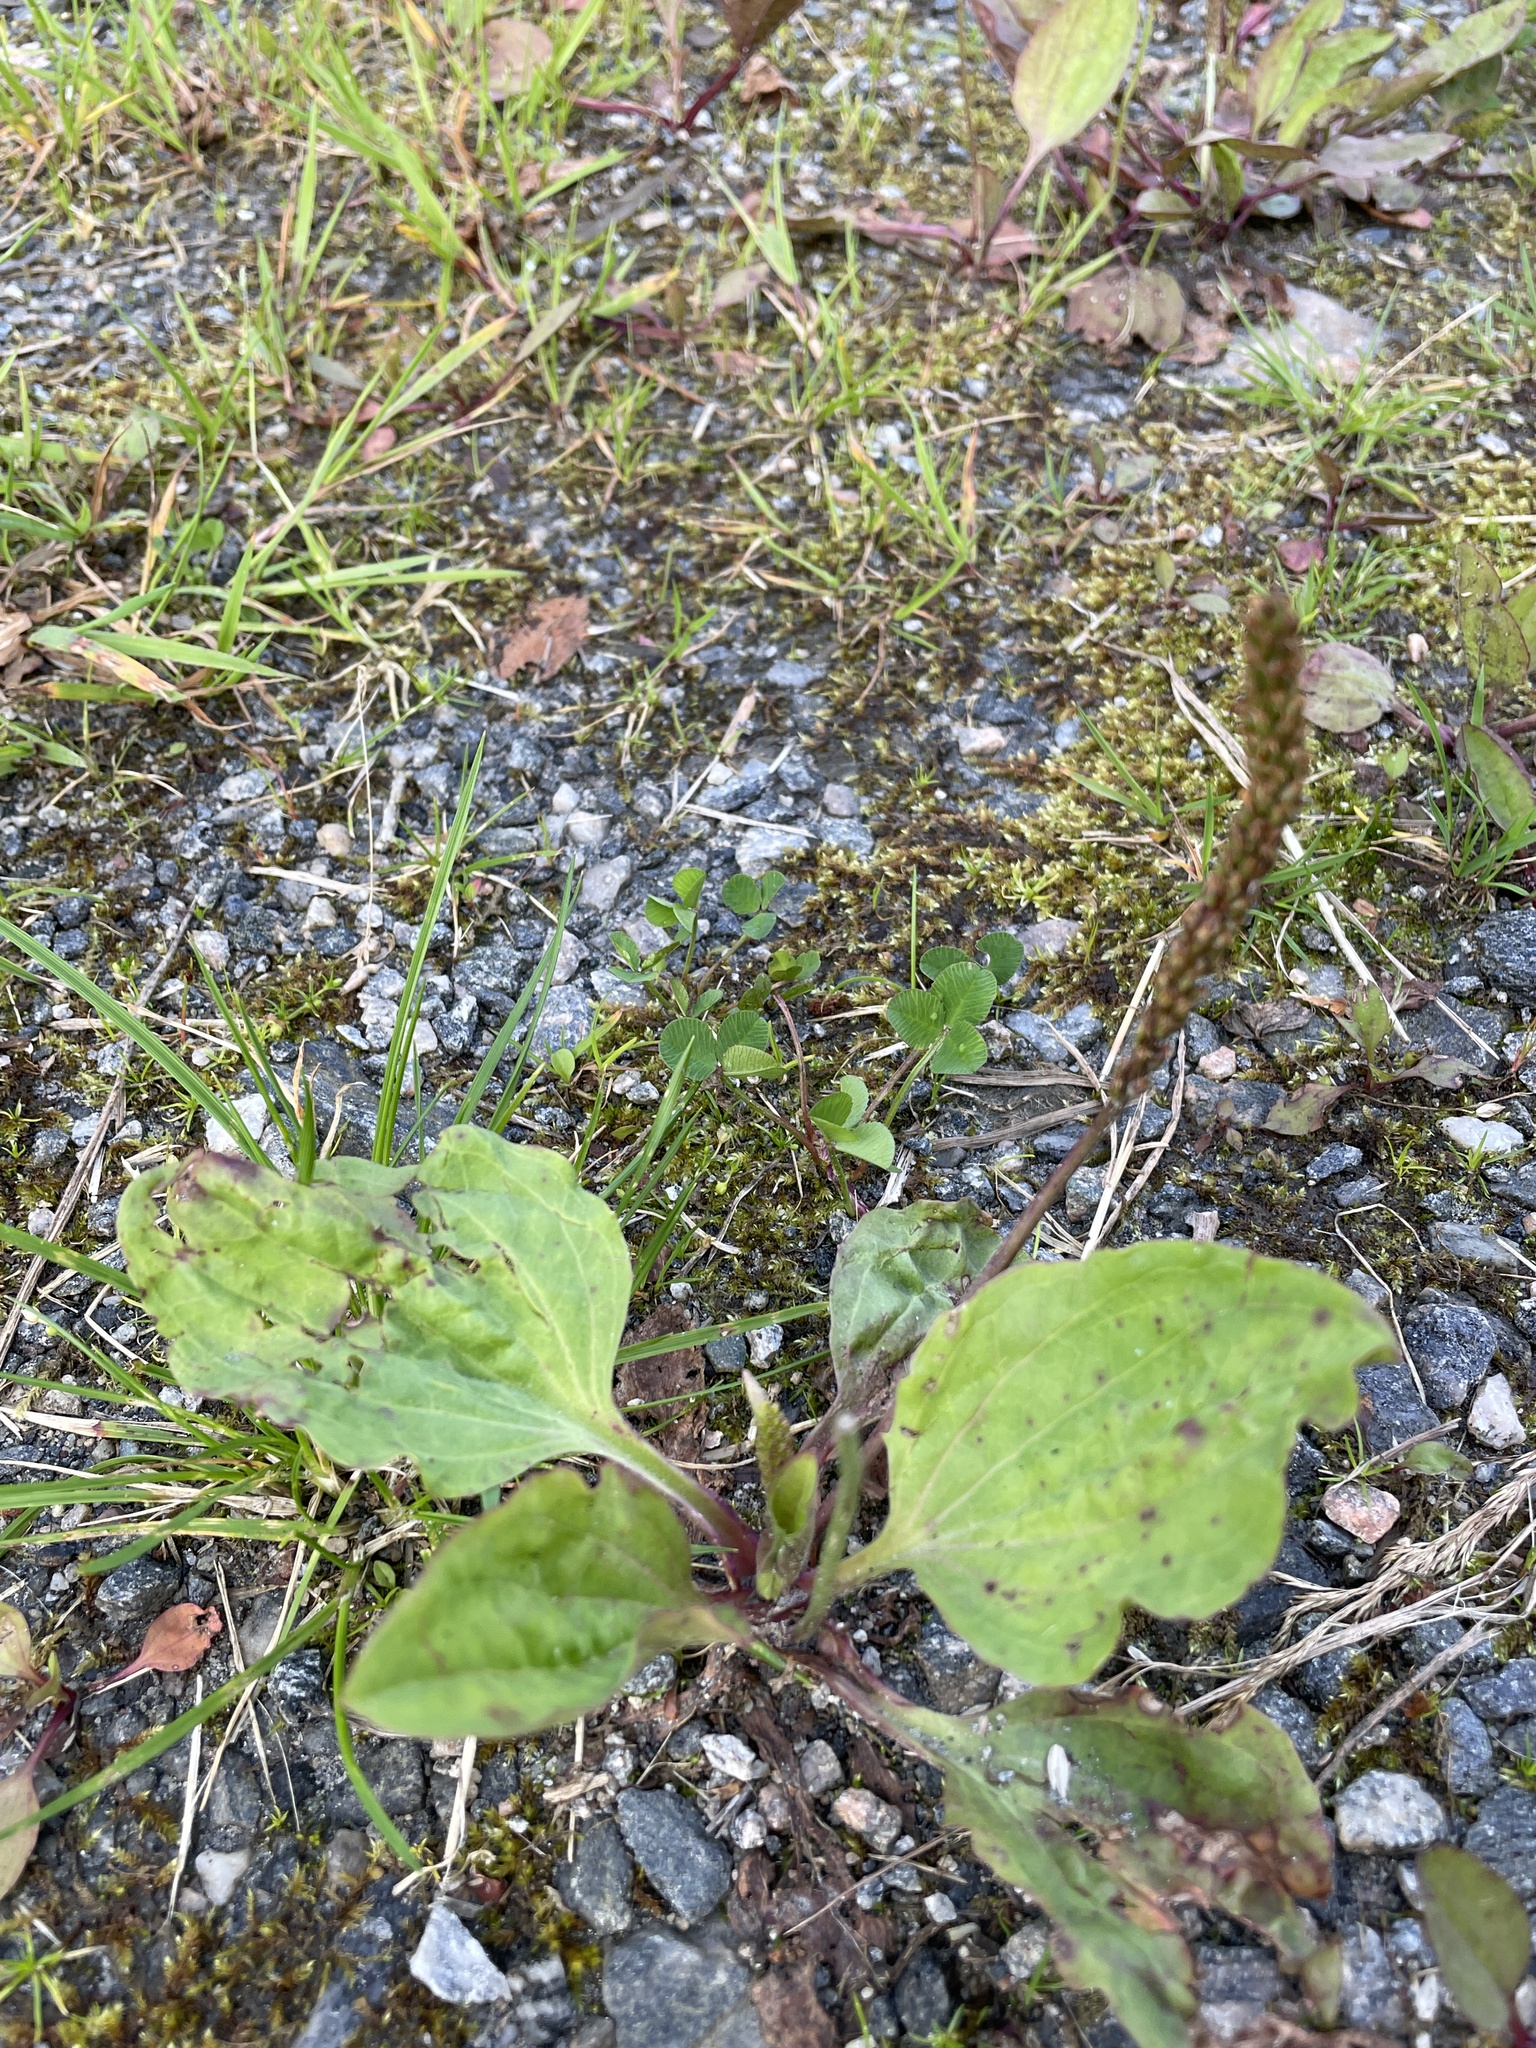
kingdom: Plantae
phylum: Tracheophyta
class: Magnoliopsida
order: Lamiales
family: Plantaginaceae
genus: Plantago
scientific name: Plantago major
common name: Common plantain
